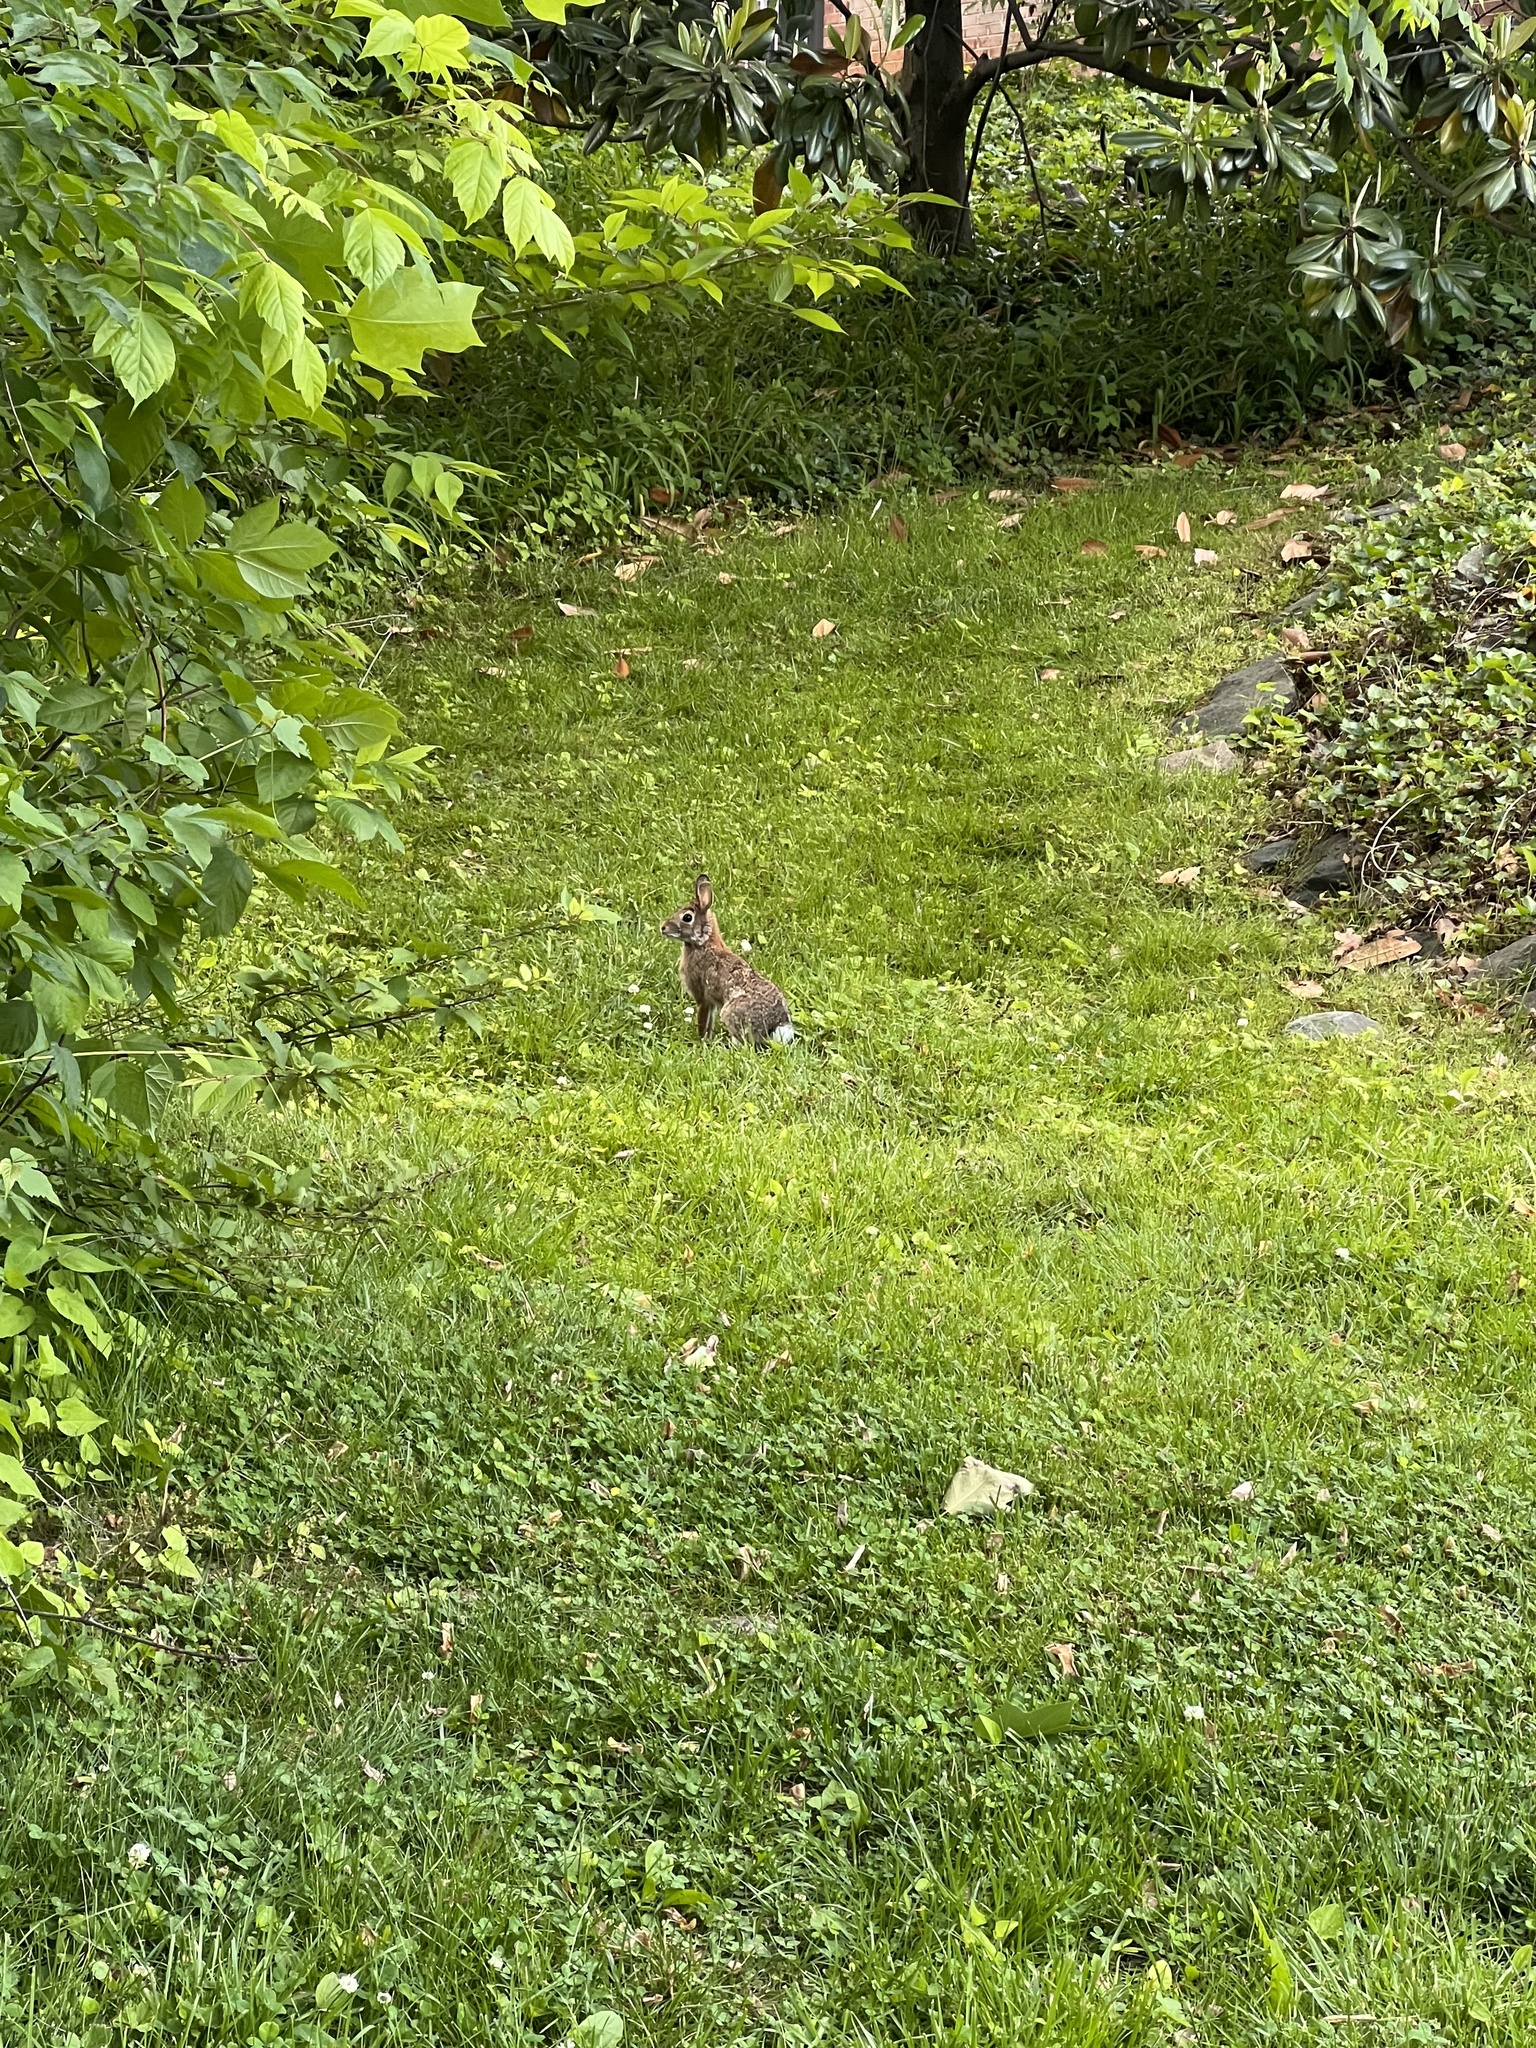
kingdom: Animalia
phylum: Chordata
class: Mammalia
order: Lagomorpha
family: Leporidae
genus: Sylvilagus
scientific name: Sylvilagus floridanus
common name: Eastern cottontail
